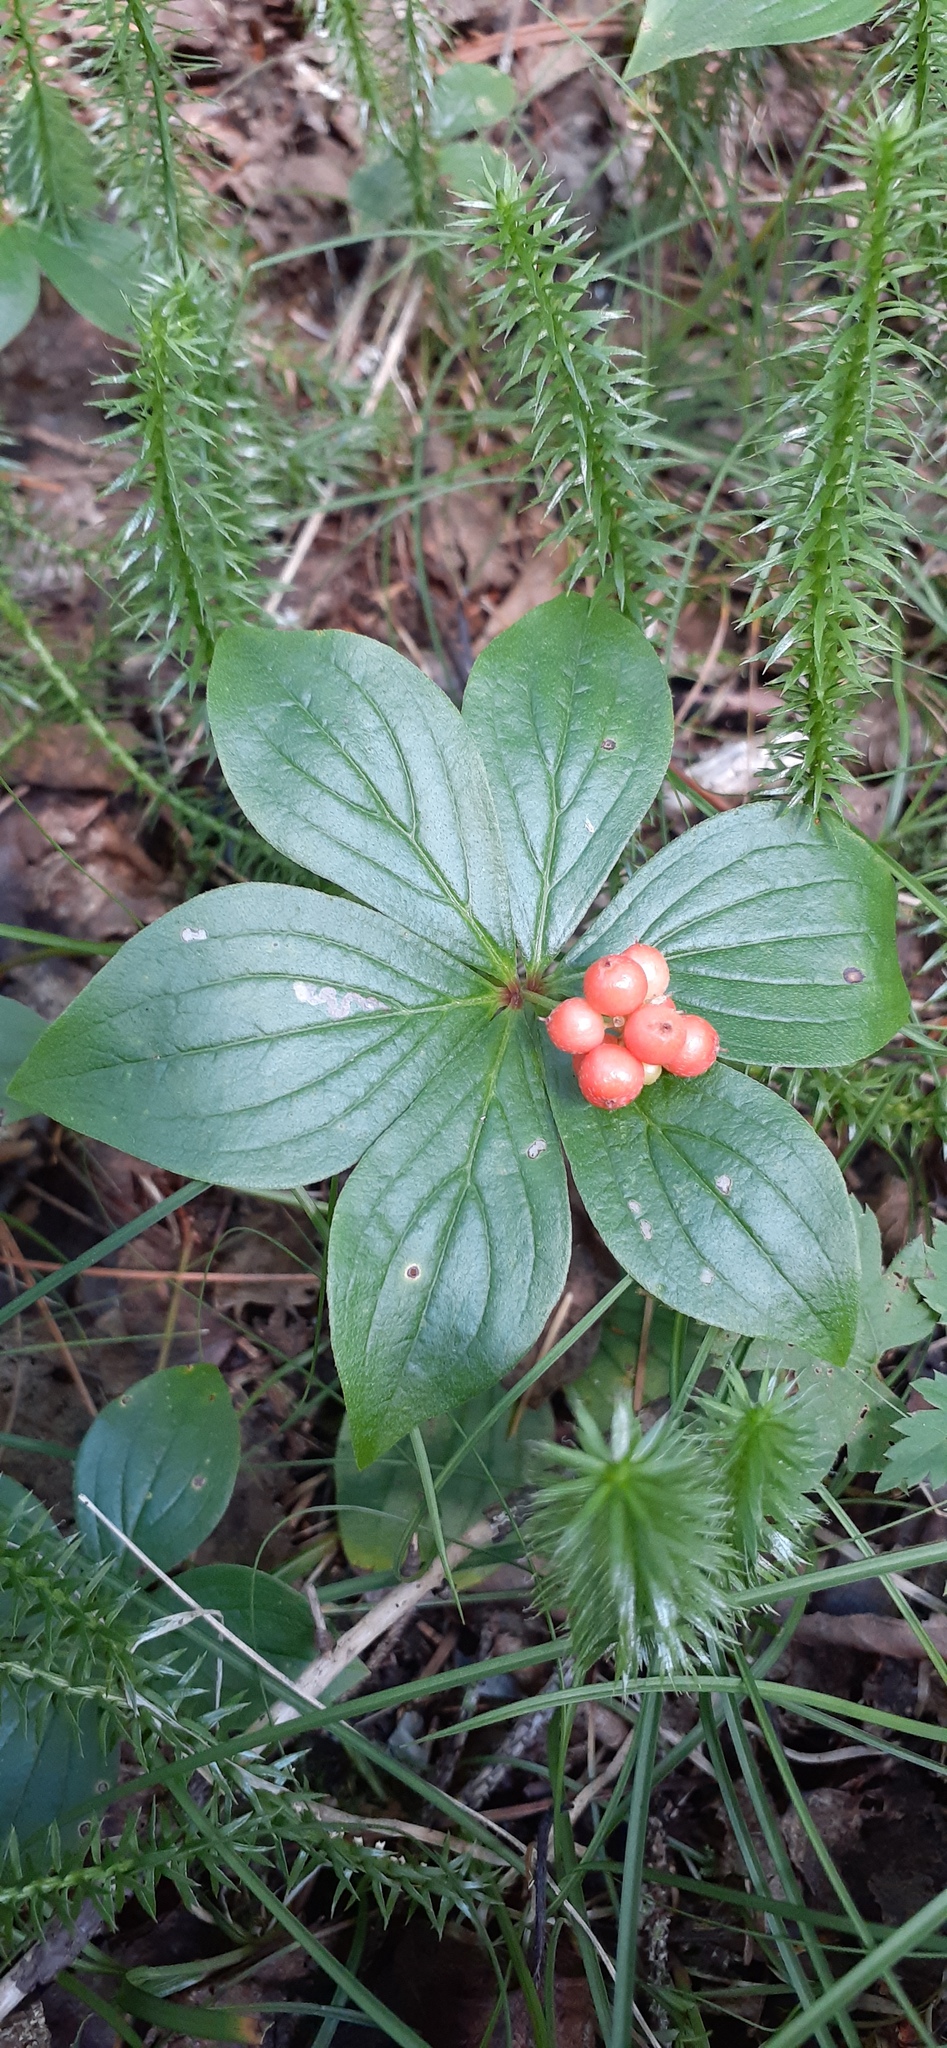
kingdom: Plantae
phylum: Tracheophyta
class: Magnoliopsida
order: Cornales
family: Cornaceae
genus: Cornus
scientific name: Cornus canadensis
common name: Creeping dogwood
